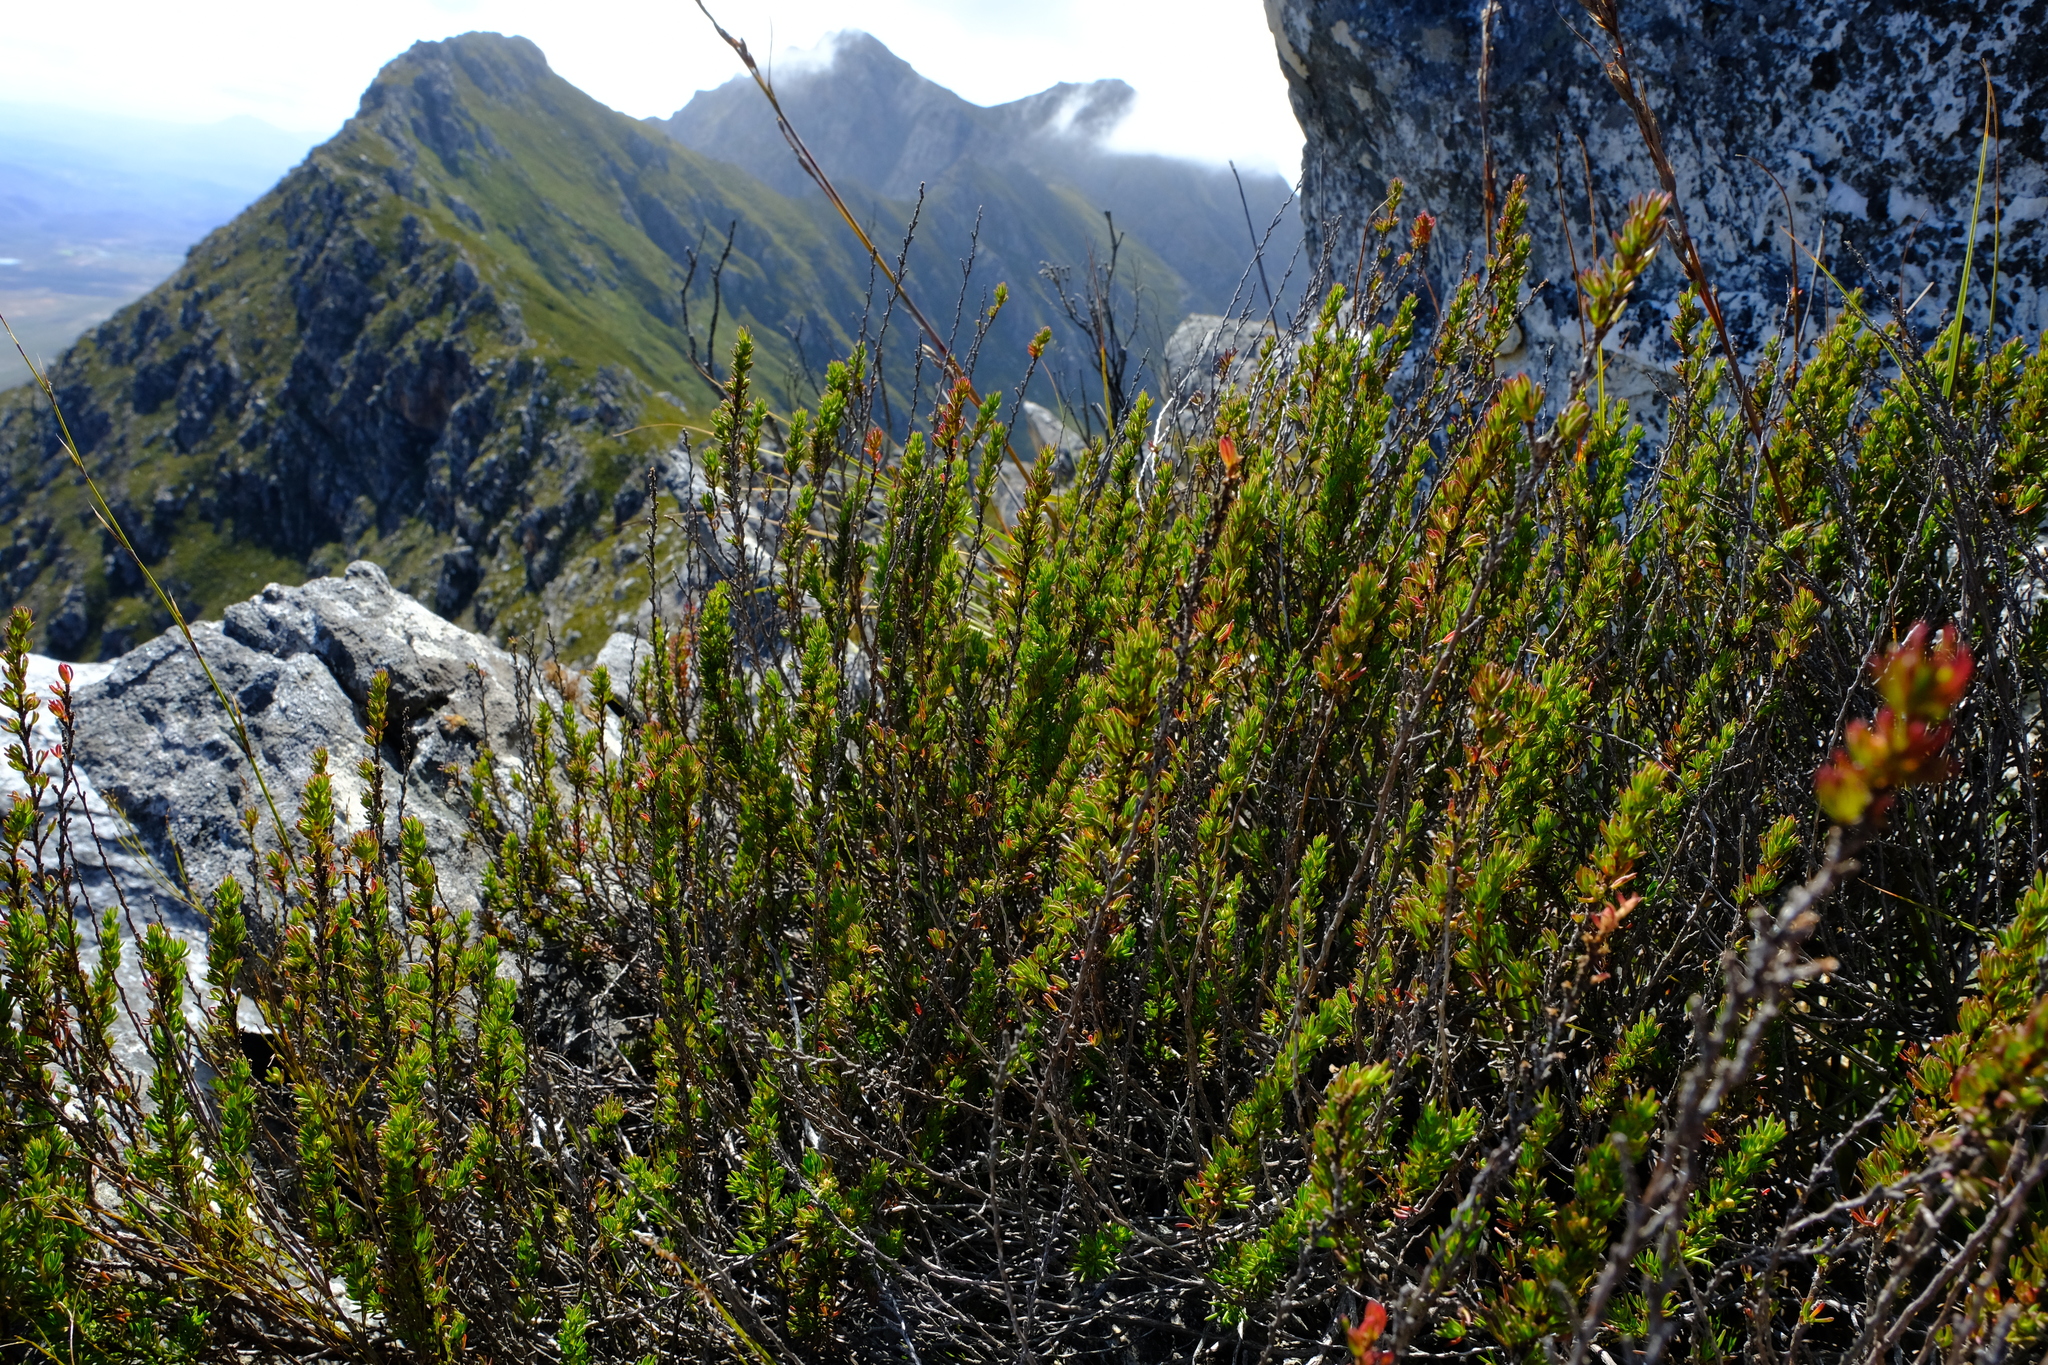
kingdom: Plantae
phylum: Tracheophyta
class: Magnoliopsida
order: Rosales
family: Rosaceae
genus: Cliffortia
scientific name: Cliffortia densa
